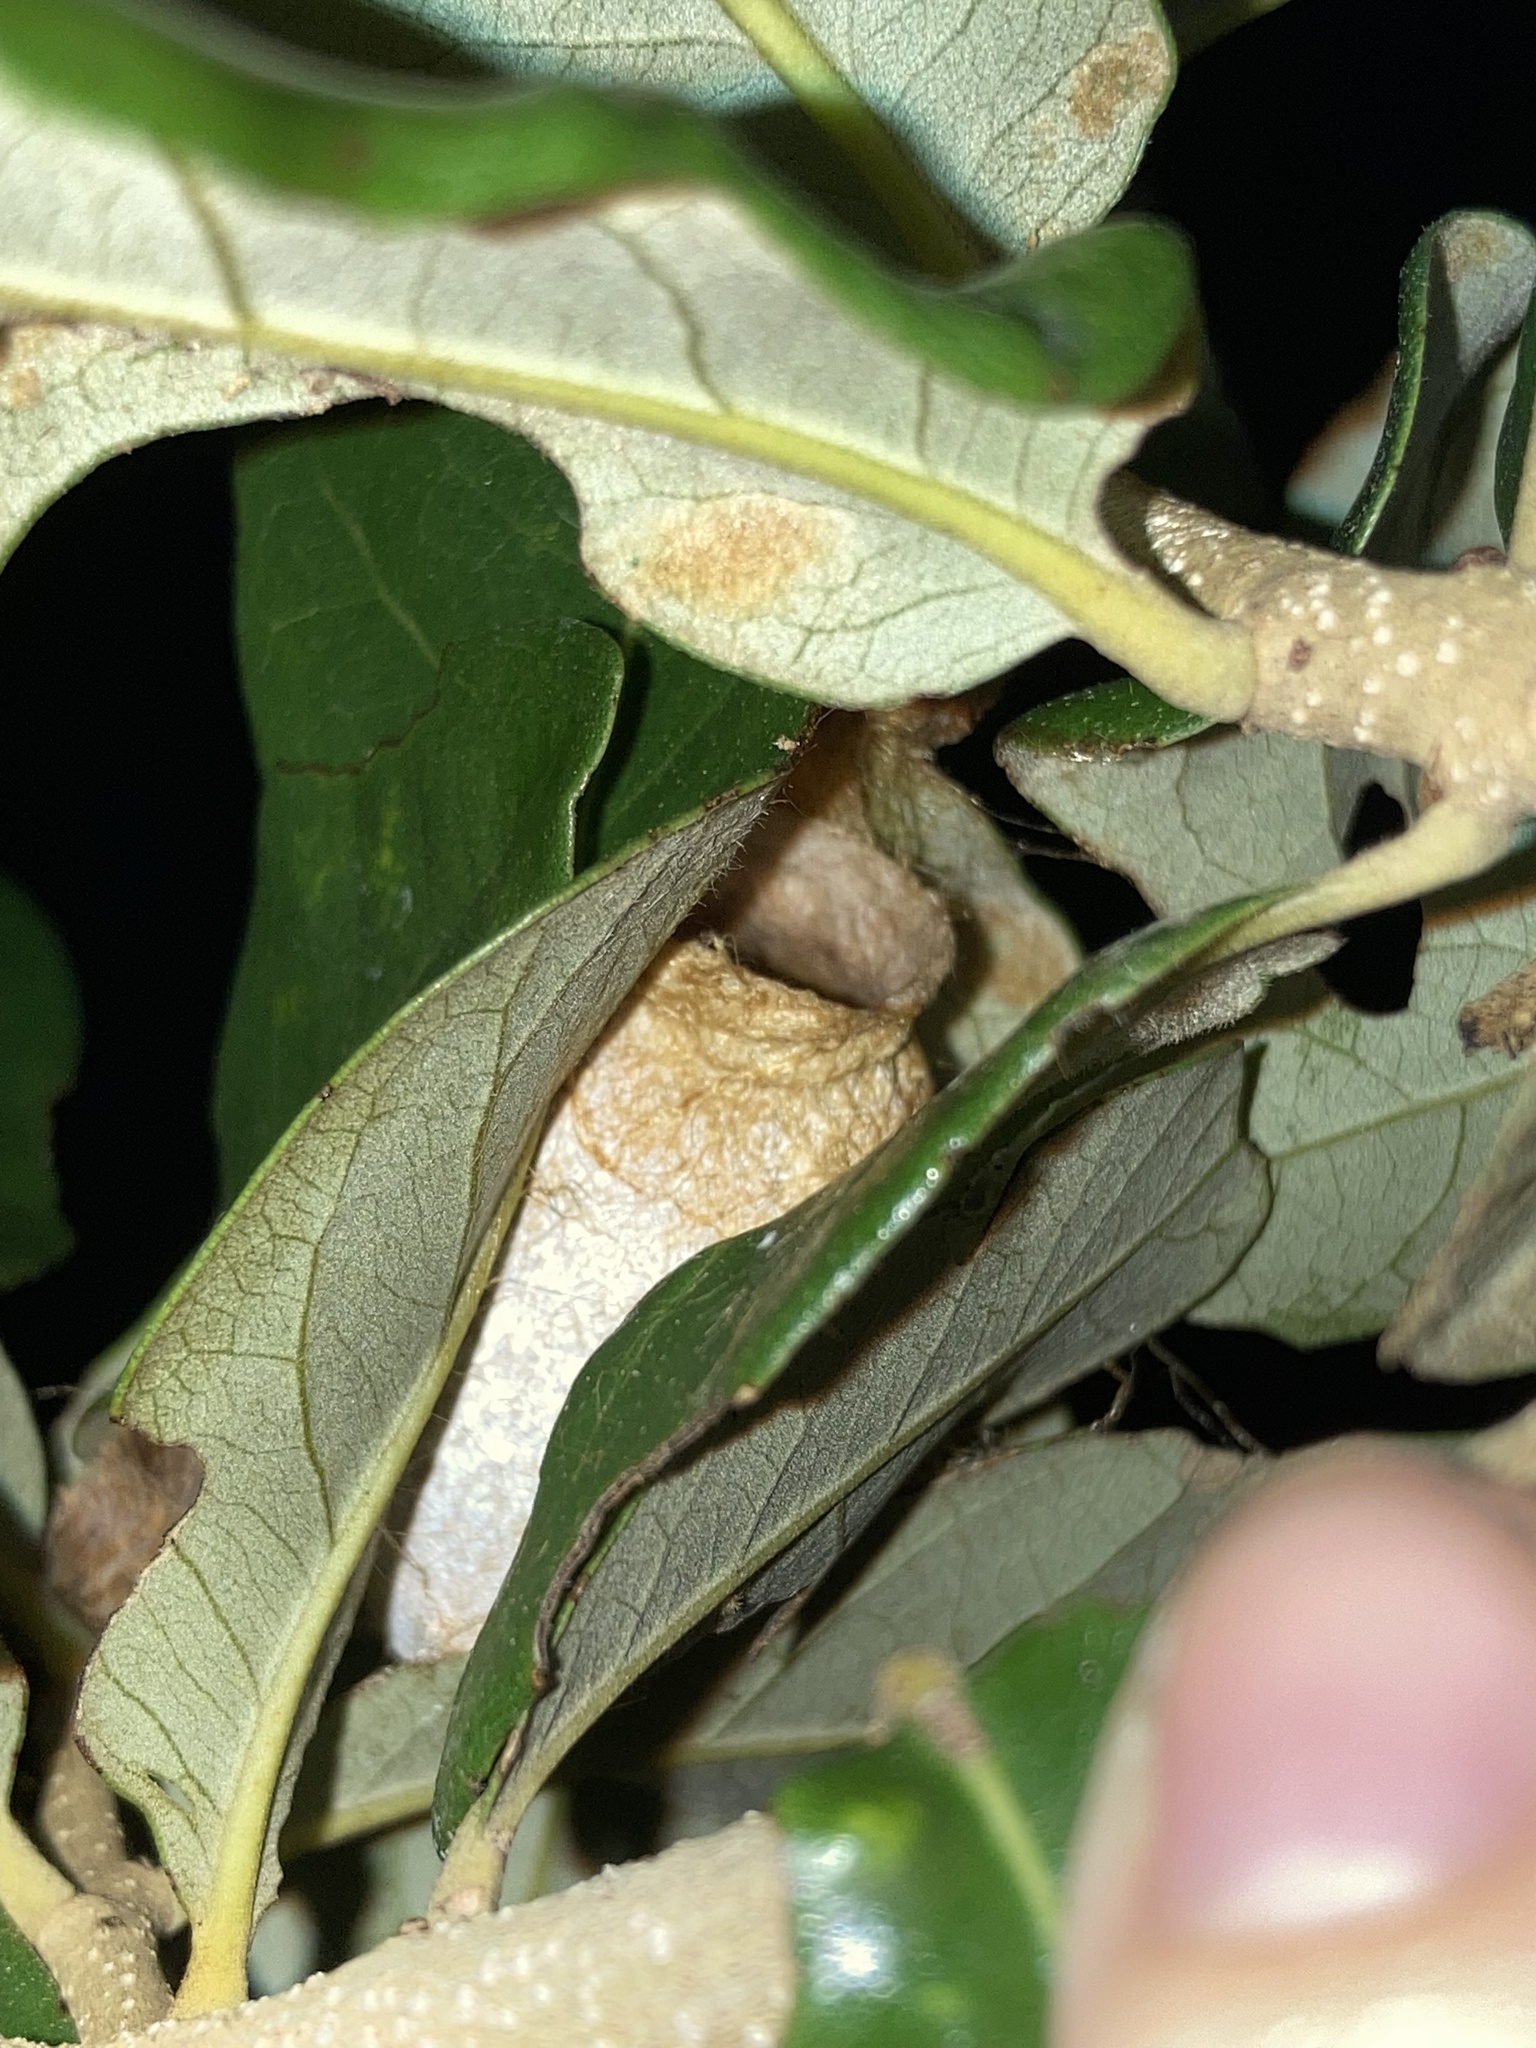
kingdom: Animalia
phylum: Arthropoda
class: Insecta
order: Lepidoptera
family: Saturniidae
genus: Antheraea
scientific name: Antheraea polyphemus
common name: Polyphemus moth
